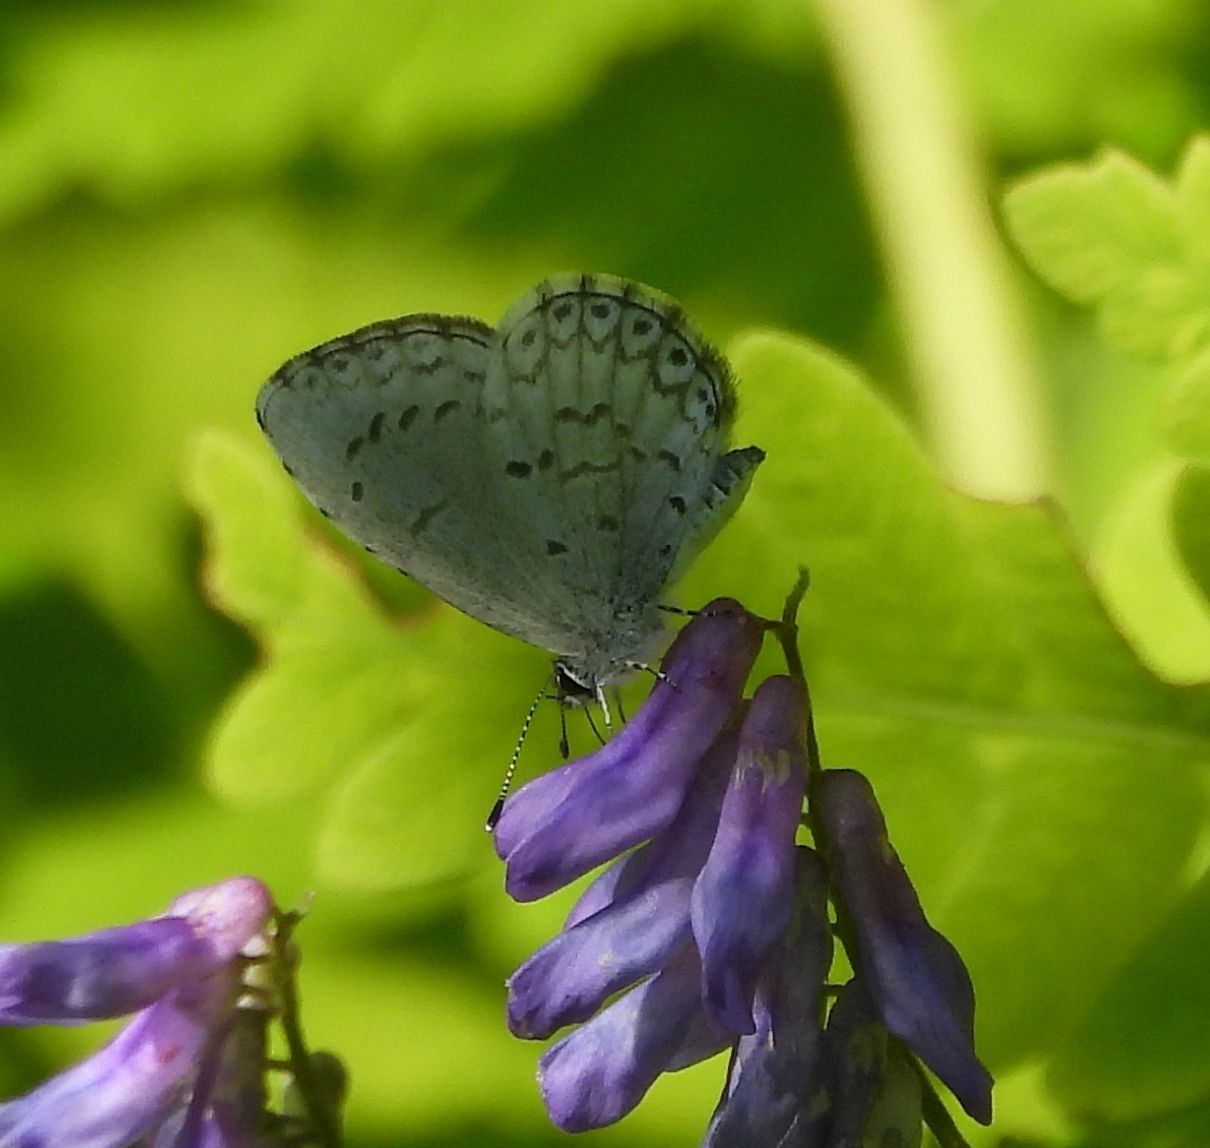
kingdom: Animalia
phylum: Arthropoda
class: Insecta
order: Lepidoptera
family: Lycaenidae
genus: Celastrina
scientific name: Celastrina lucia
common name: Lucia azure
